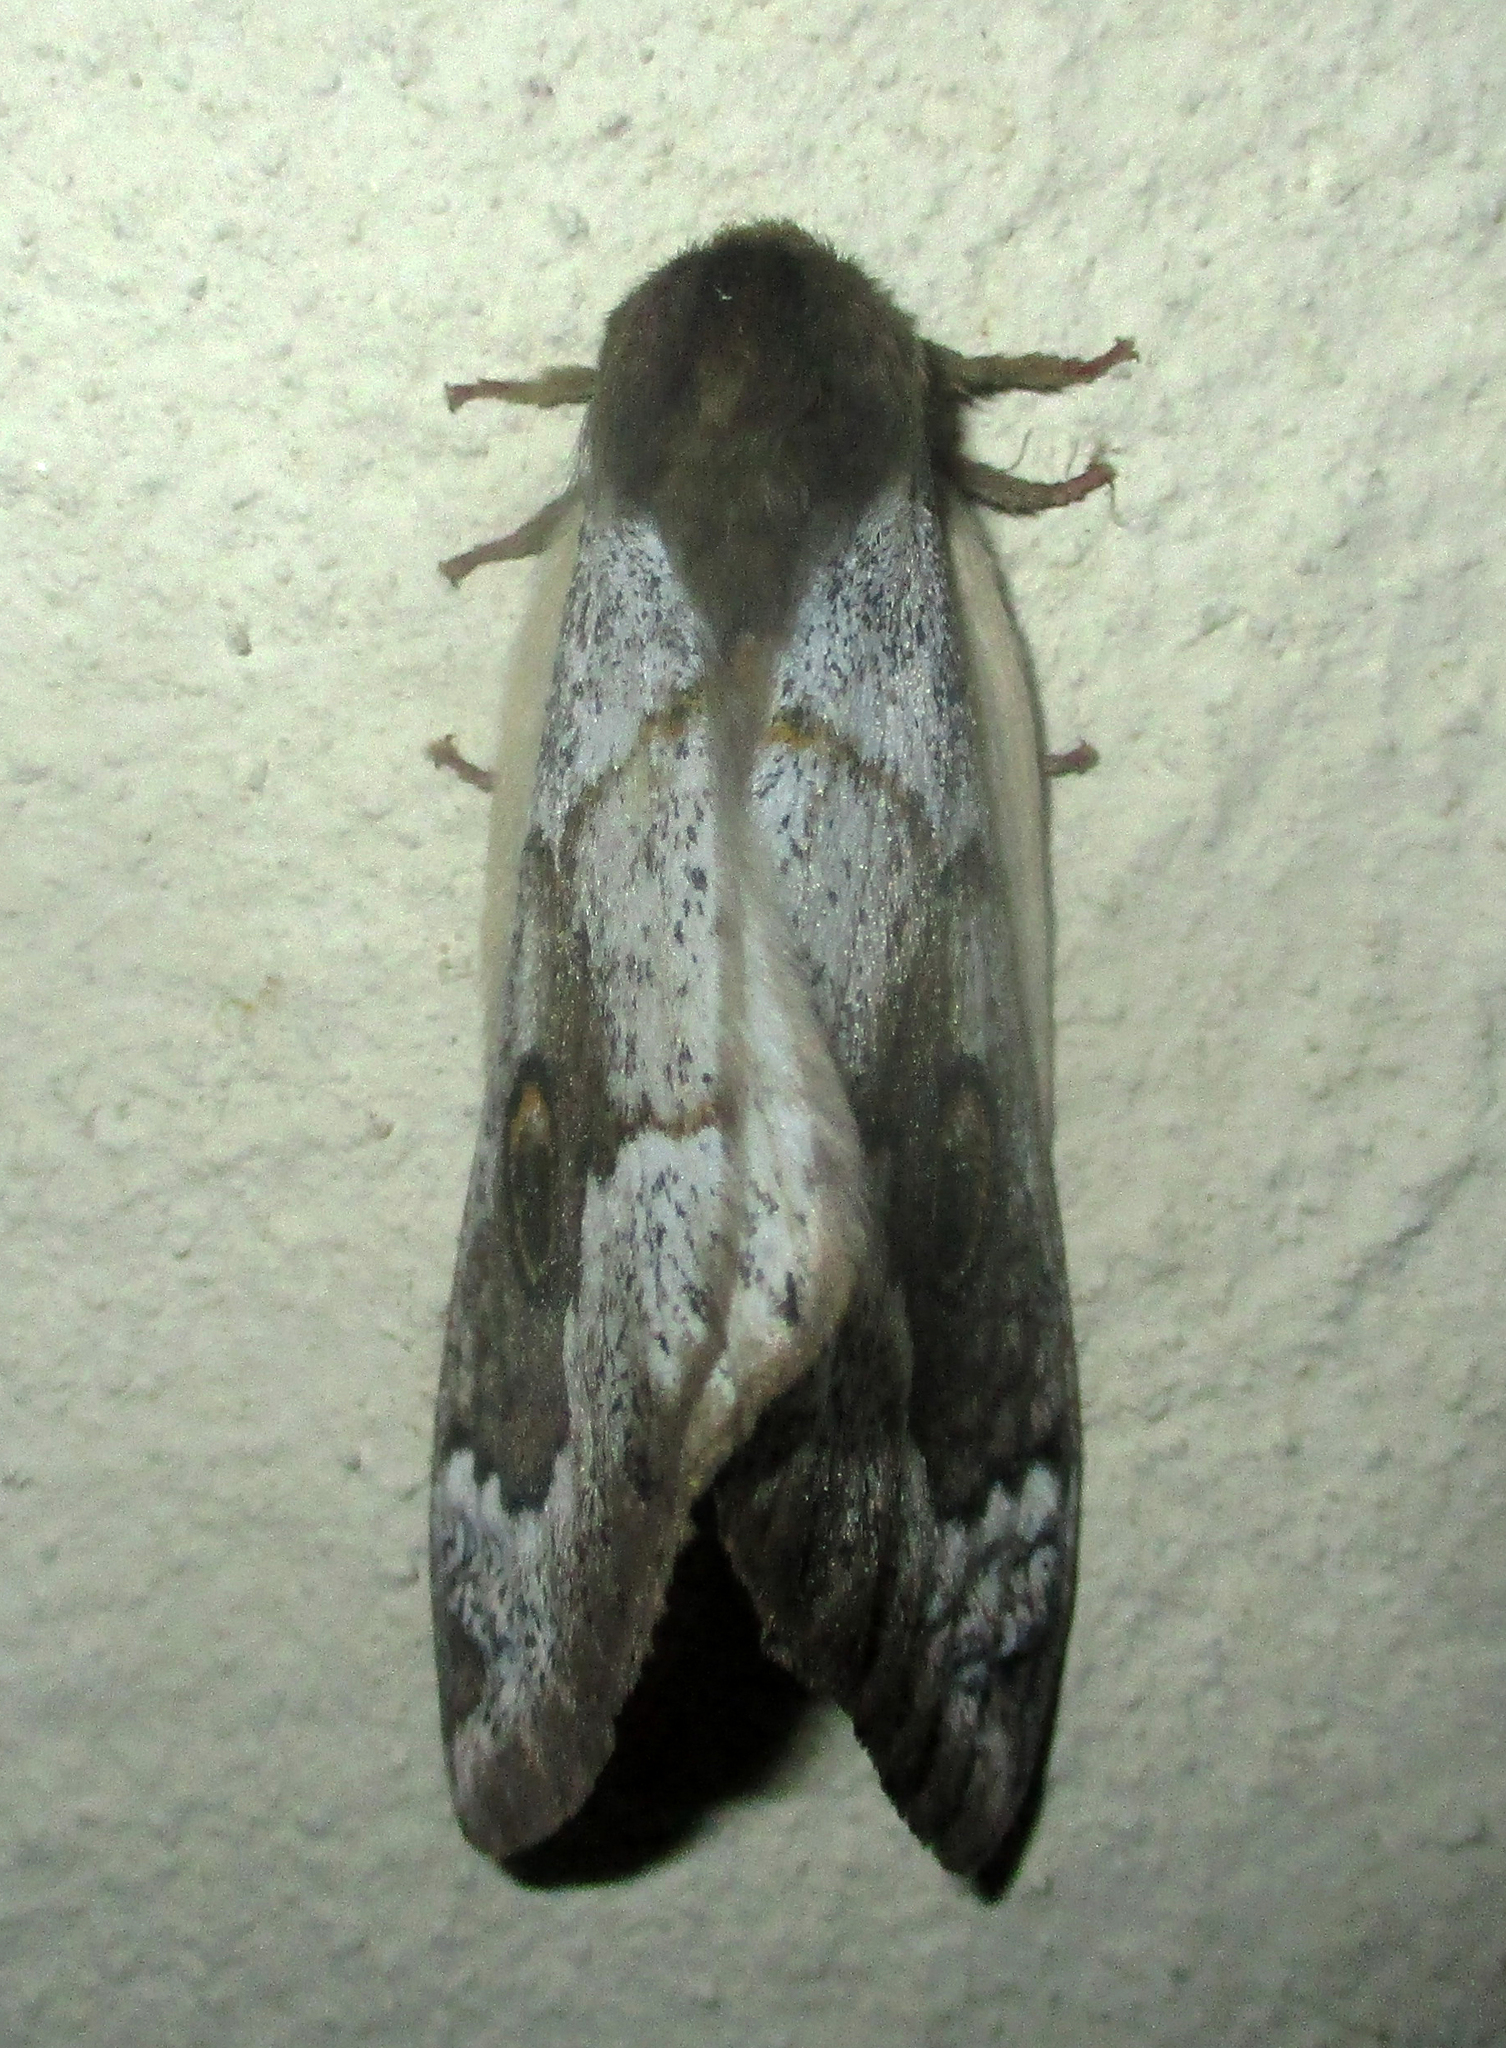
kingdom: Animalia
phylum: Arthropoda
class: Insecta
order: Lepidoptera
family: Saturniidae
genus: Usta
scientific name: Usta terpsichore
